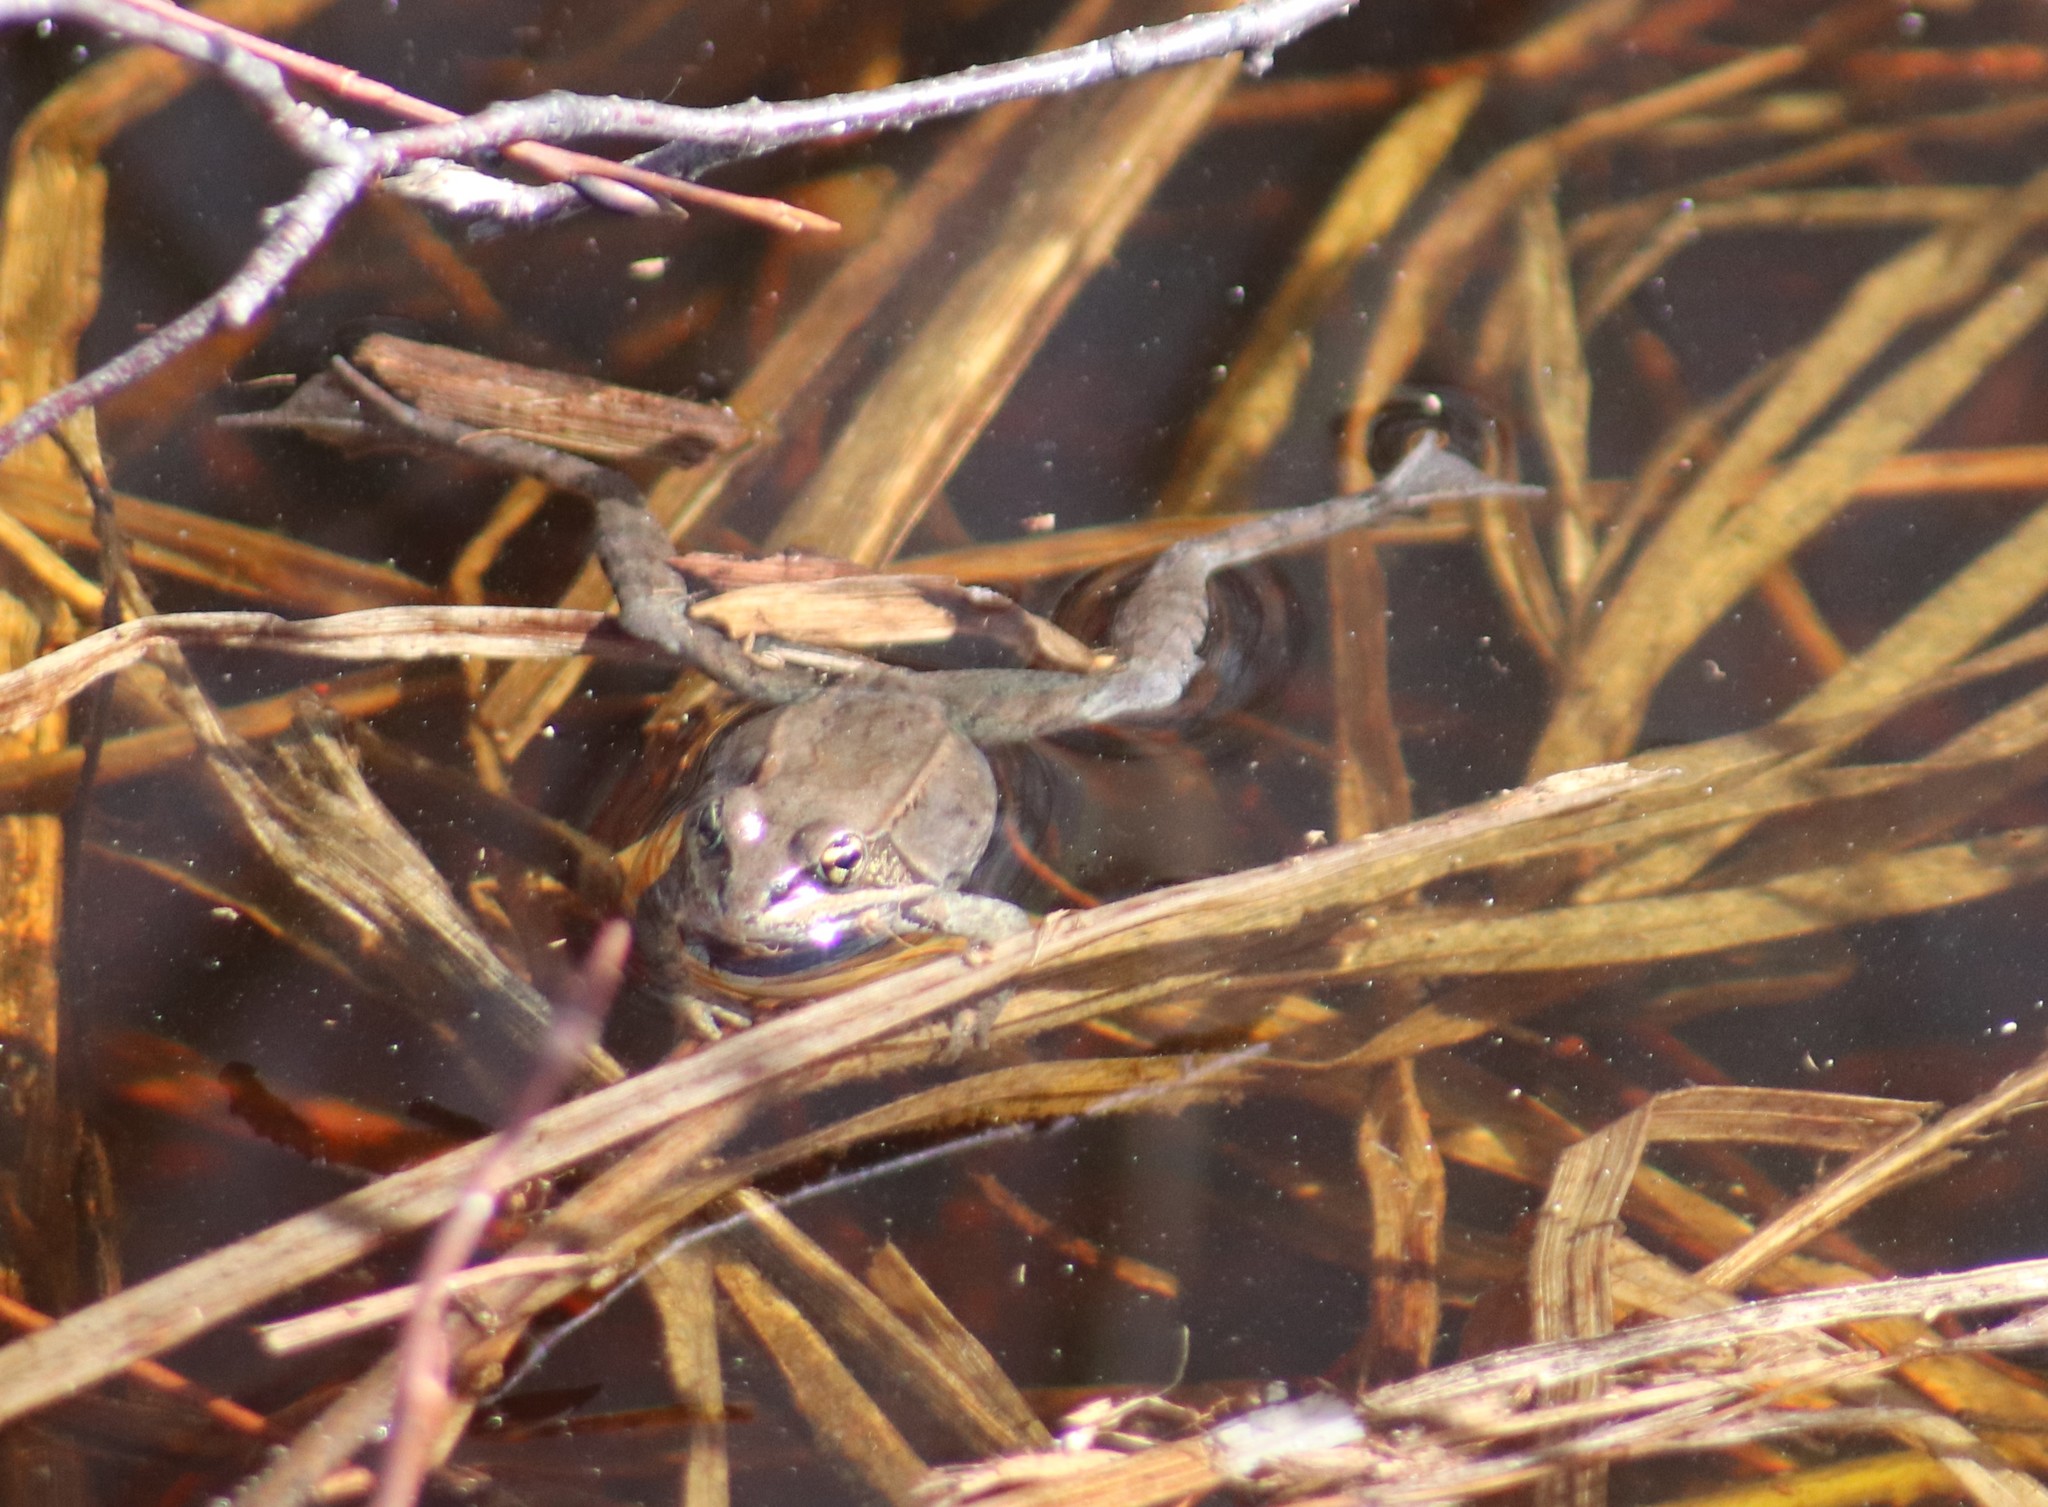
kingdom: Animalia
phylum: Chordata
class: Amphibia
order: Anura
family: Ranidae
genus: Lithobates
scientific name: Lithobates sylvaticus
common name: Wood frog
